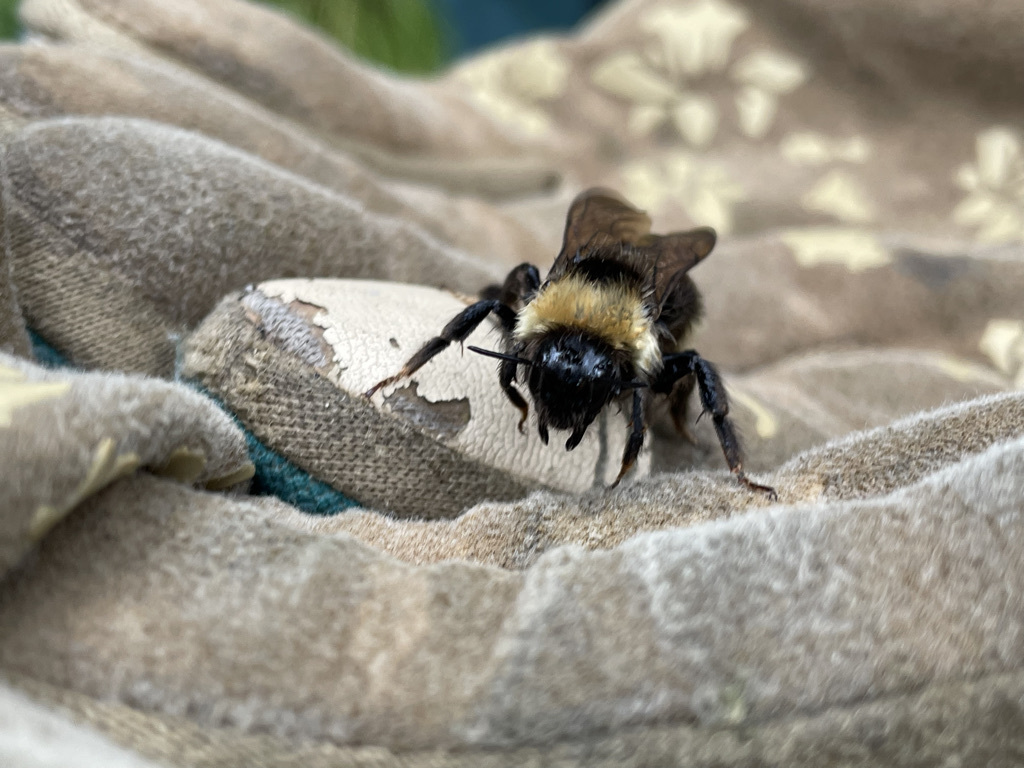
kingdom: Animalia
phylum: Arthropoda
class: Insecta
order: Hymenoptera
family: Apidae
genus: Bombus
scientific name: Bombus ashtoni
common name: Ashton's cuckoo bumble bee
